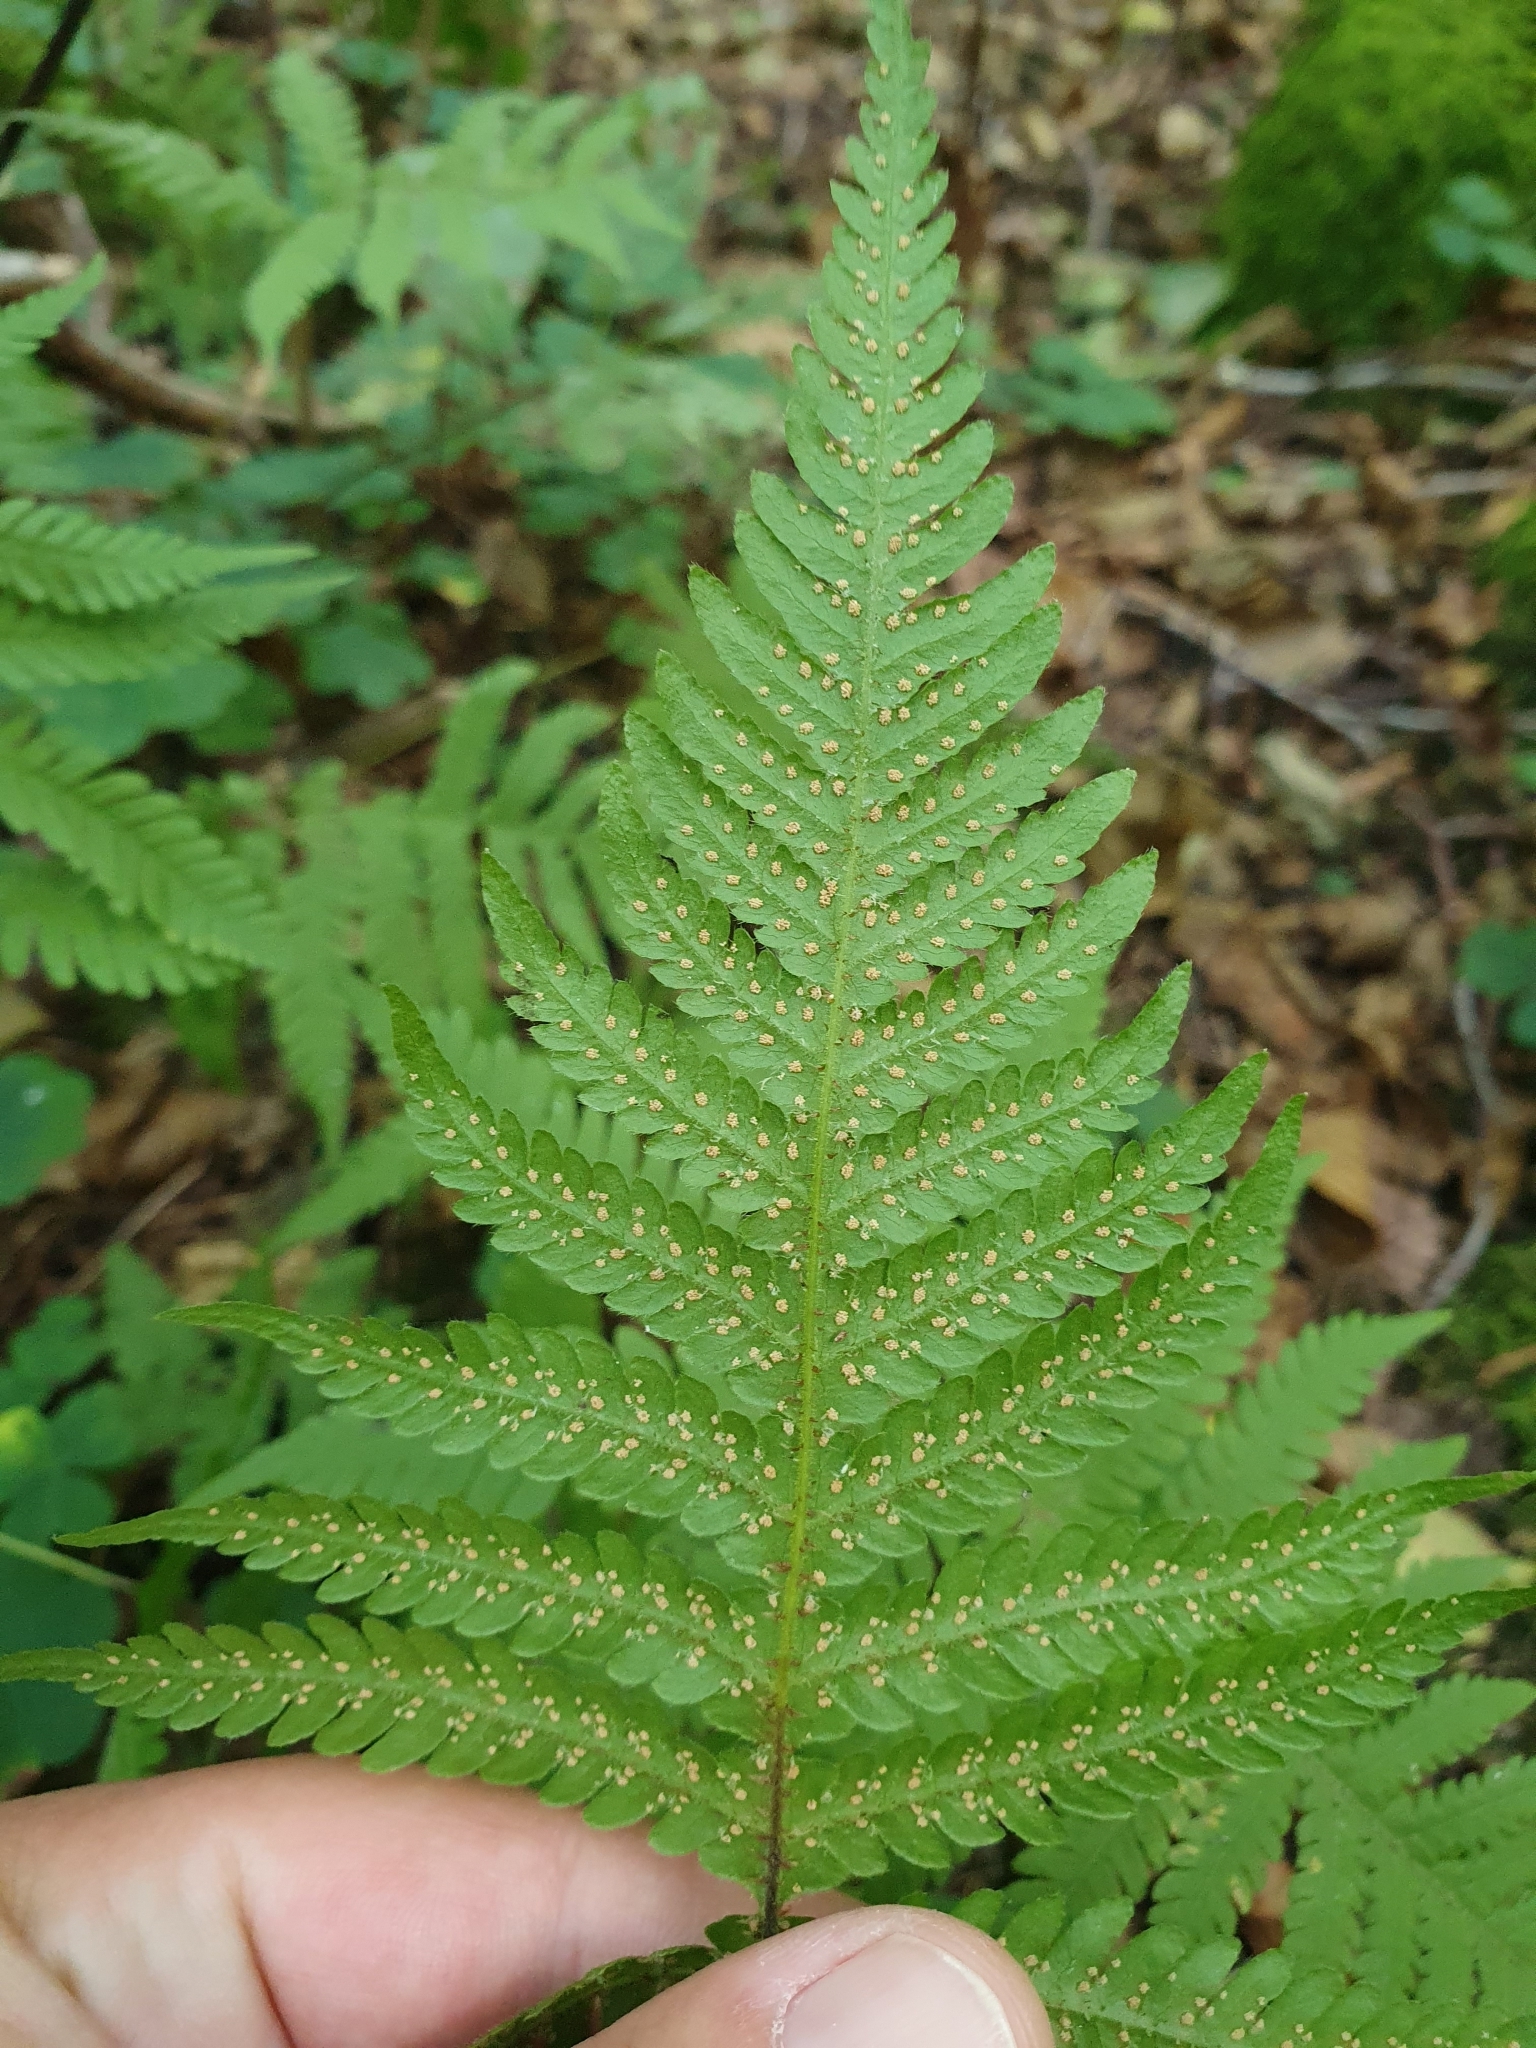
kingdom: Plantae
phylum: Tracheophyta
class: Polypodiopsida
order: Polypodiales
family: Thelypteridaceae
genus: Phegopteris
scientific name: Phegopteris connectilis
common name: Beech fern
